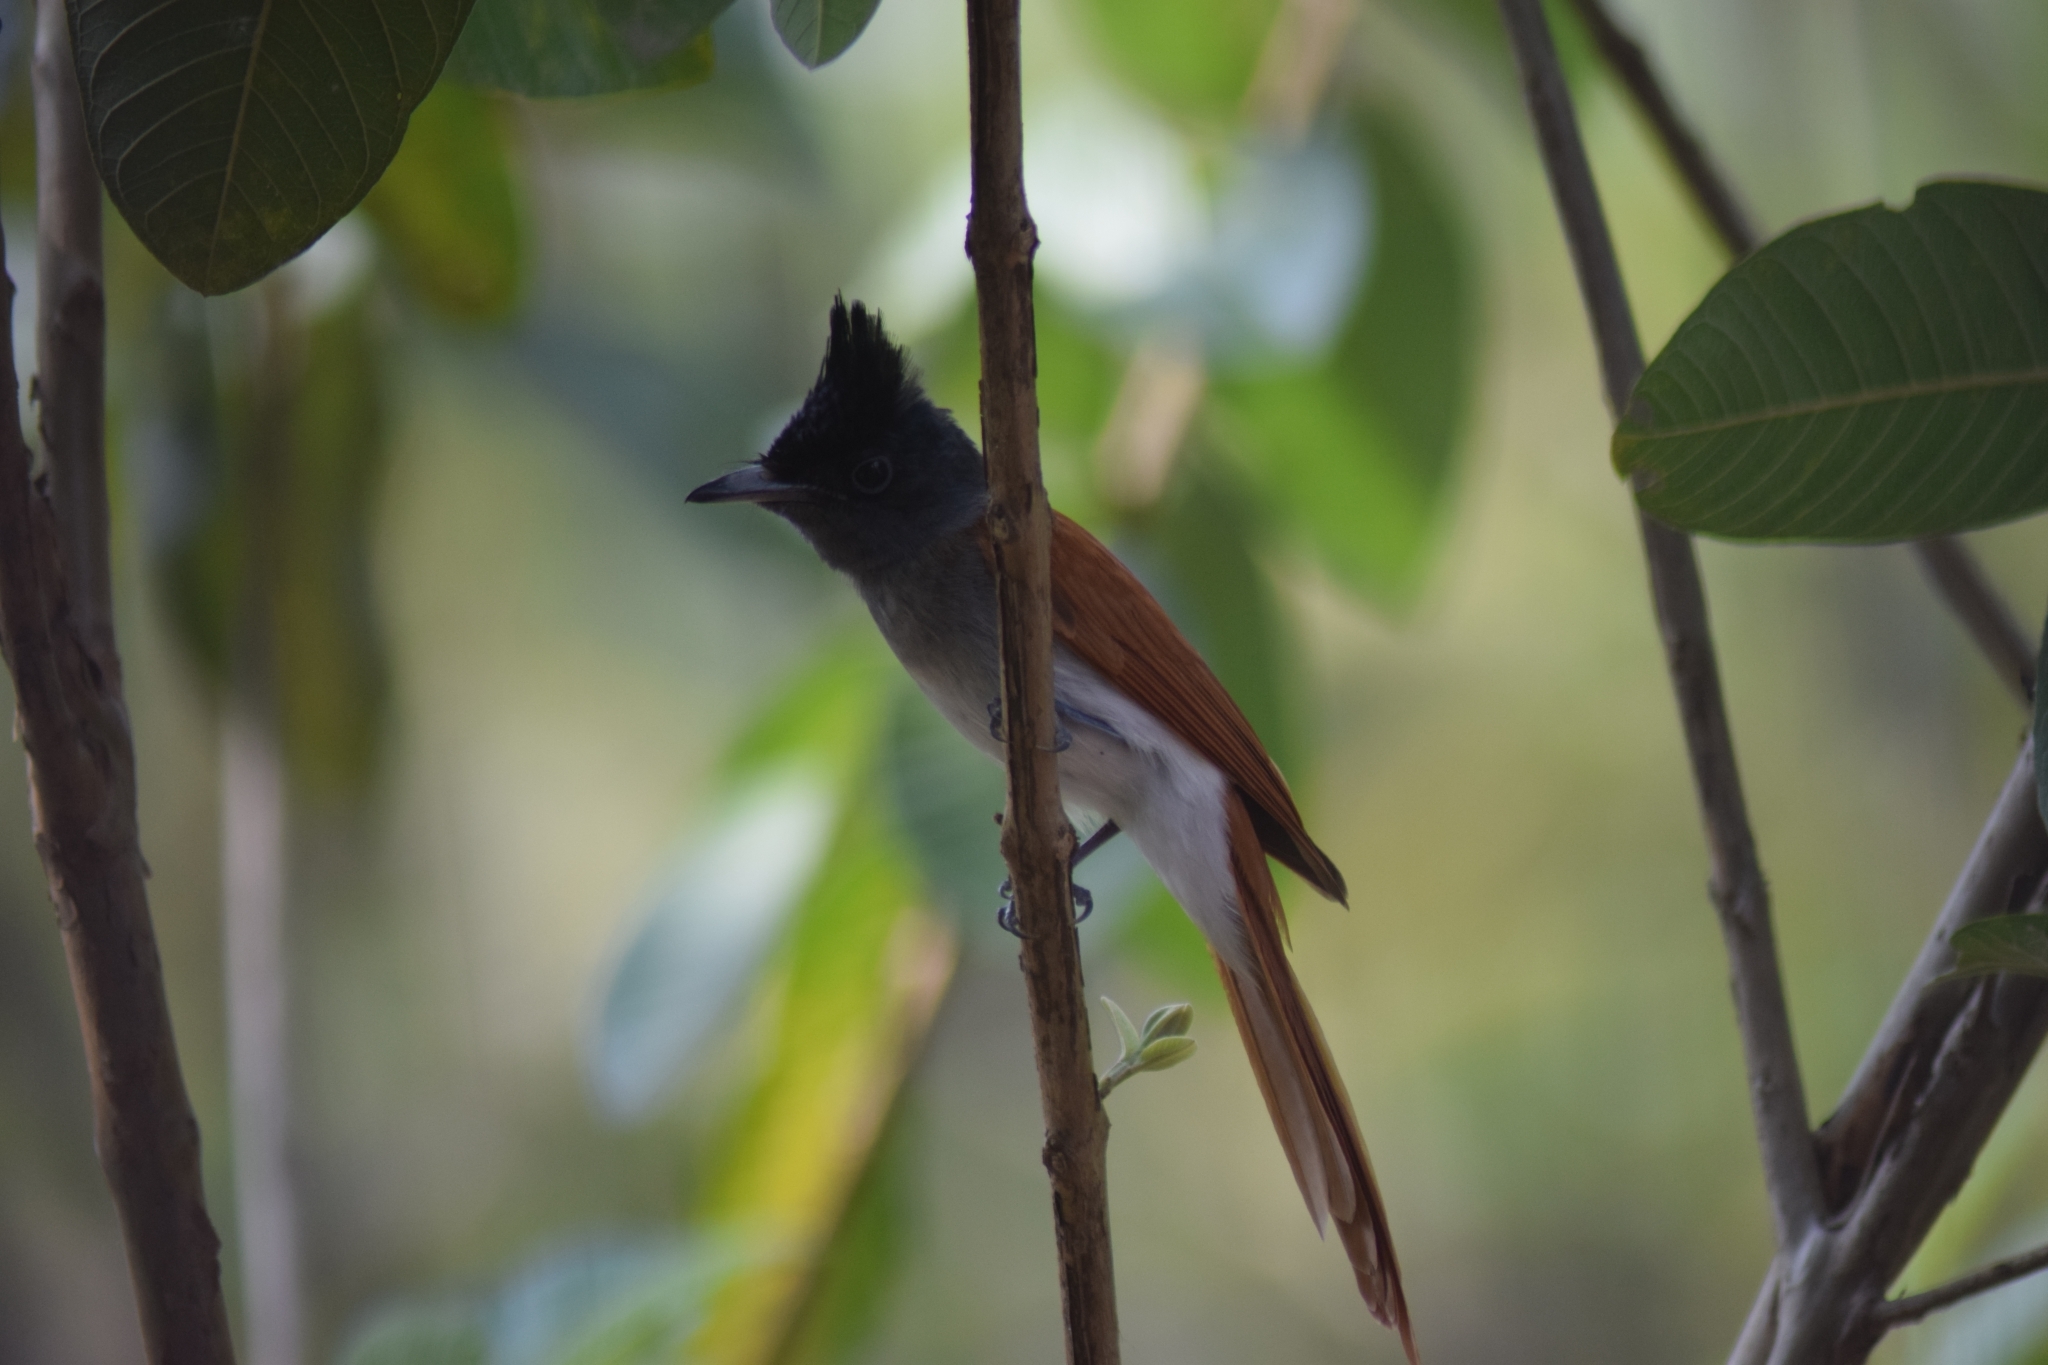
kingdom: Animalia
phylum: Chordata
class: Aves
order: Passeriformes
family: Monarchidae
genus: Terpsiphone
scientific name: Terpsiphone paradisi
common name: Indian paradise flycatcher
